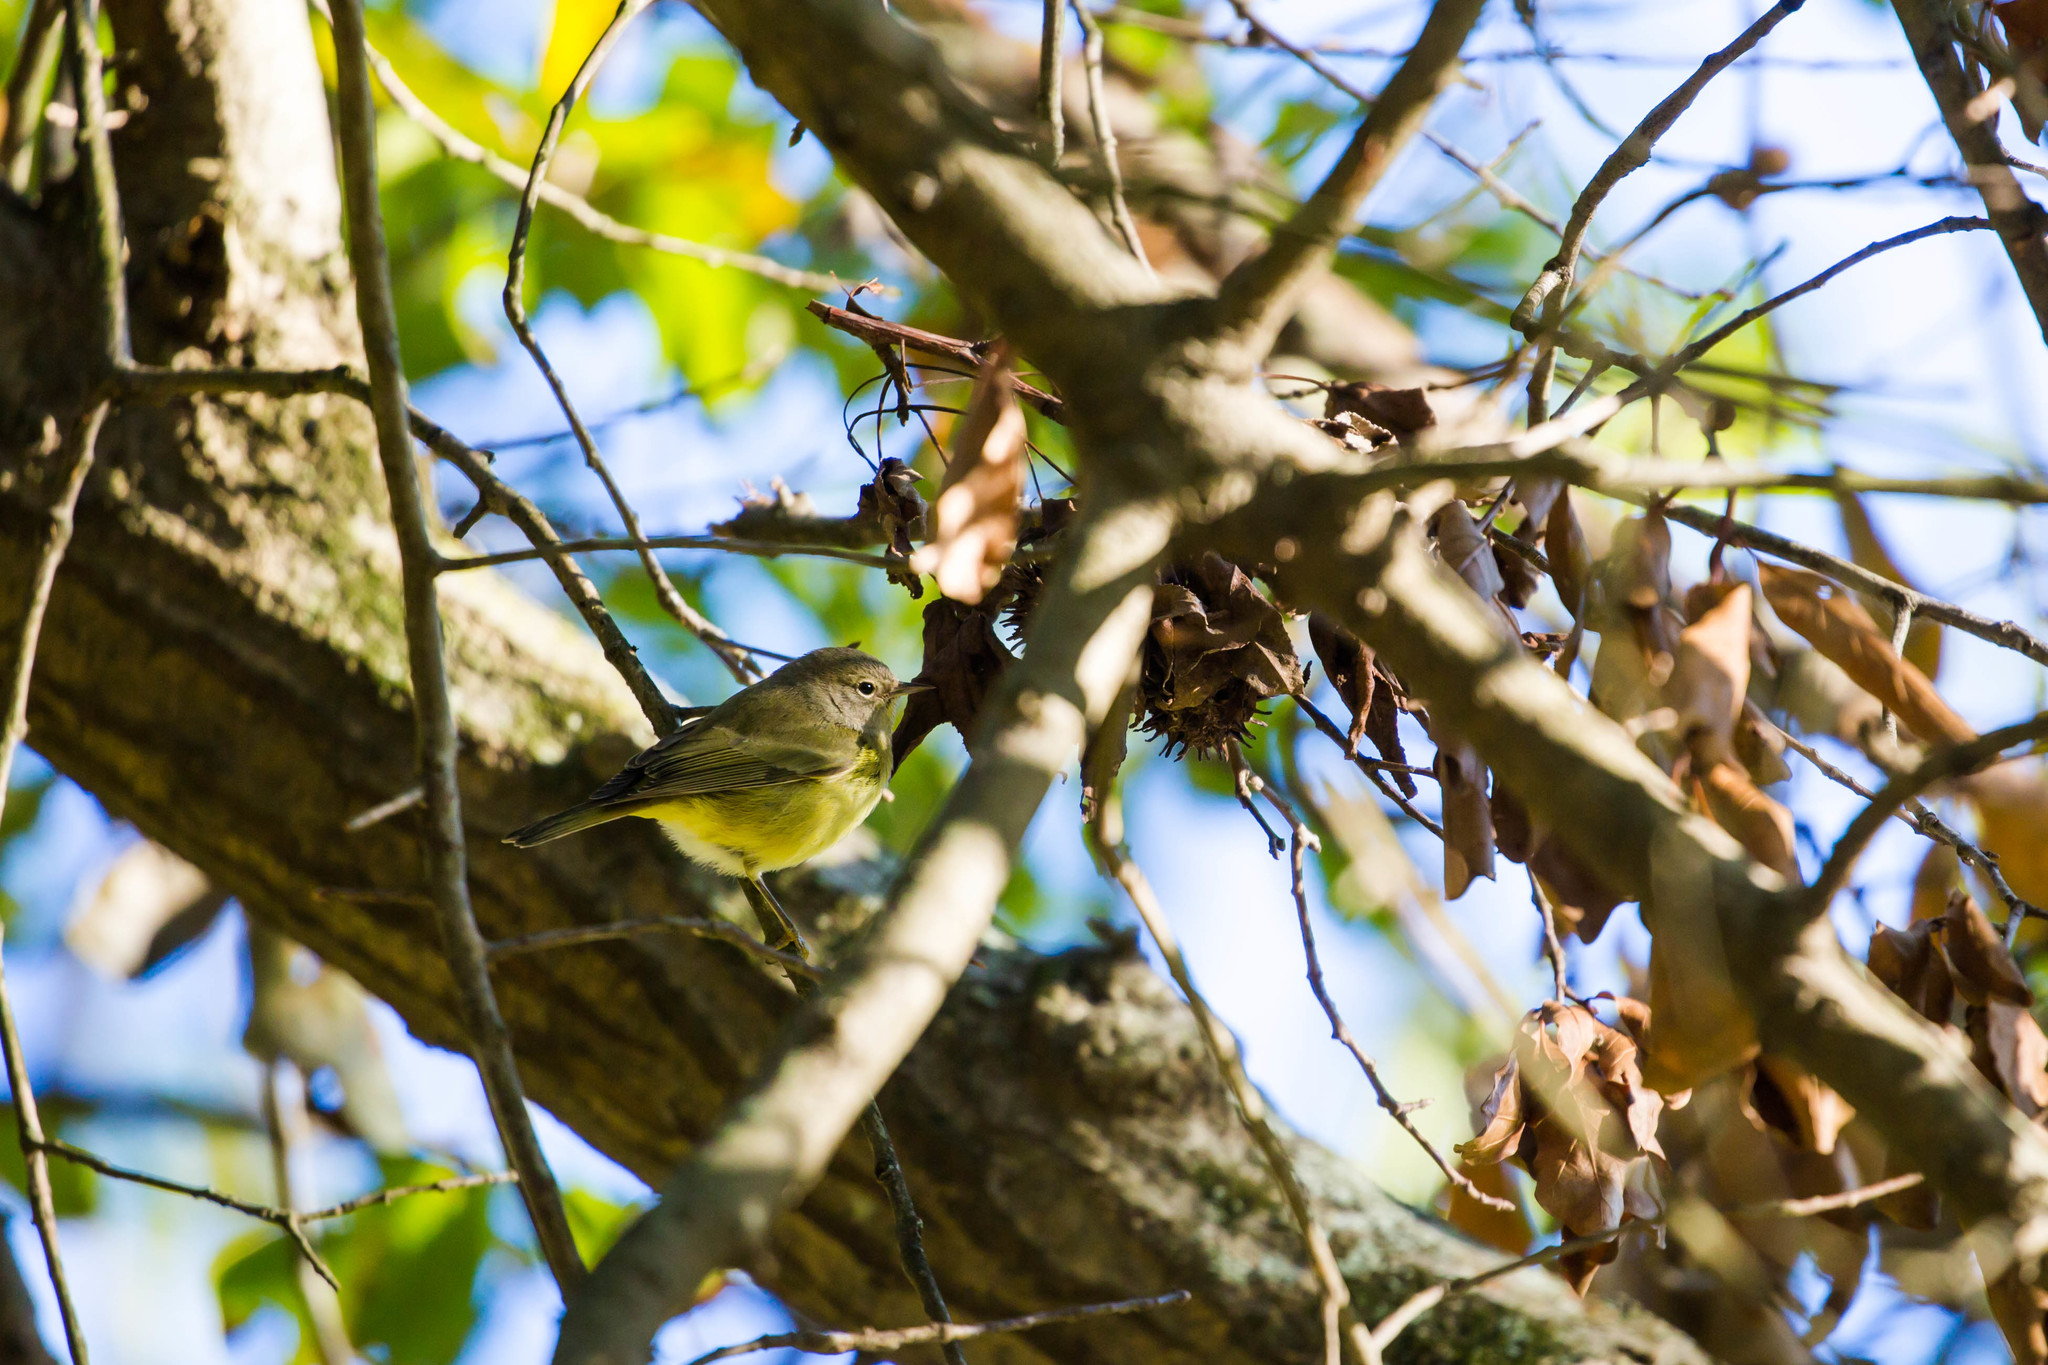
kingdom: Animalia
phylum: Chordata
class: Aves
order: Passeriformes
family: Parulidae
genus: Leiothlypis
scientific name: Leiothlypis celata
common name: Orange-crowned warbler
